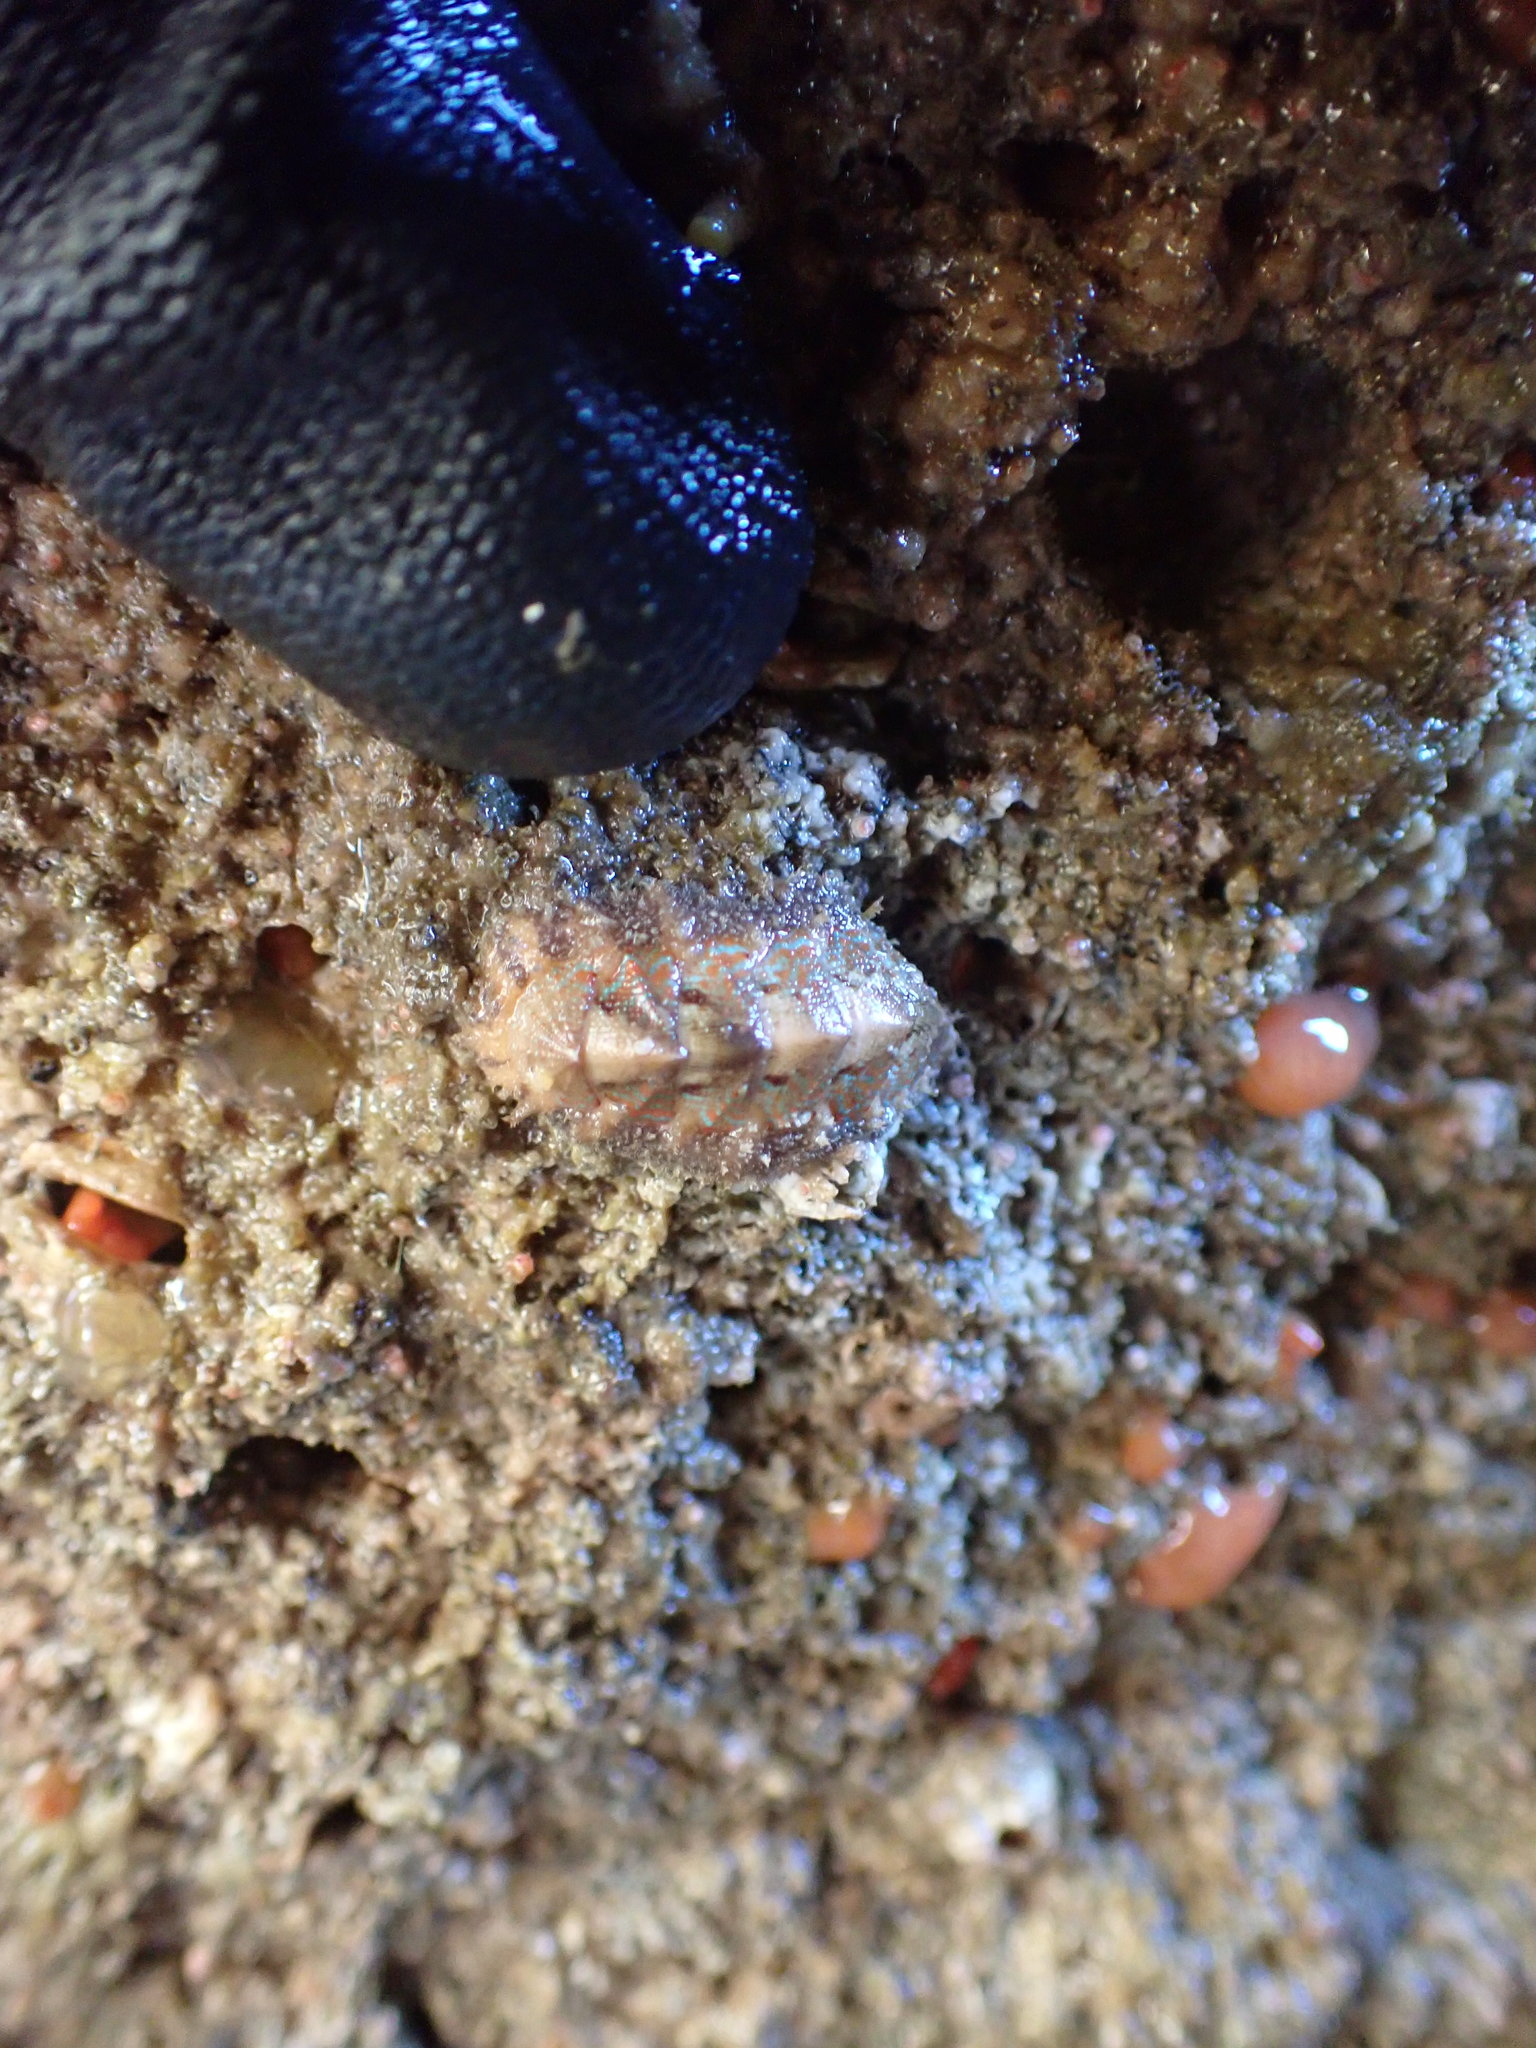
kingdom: Animalia
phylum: Mollusca
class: Polyplacophora
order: Chitonida
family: Mopaliidae
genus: Mopalia
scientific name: Mopalia spectabilis
